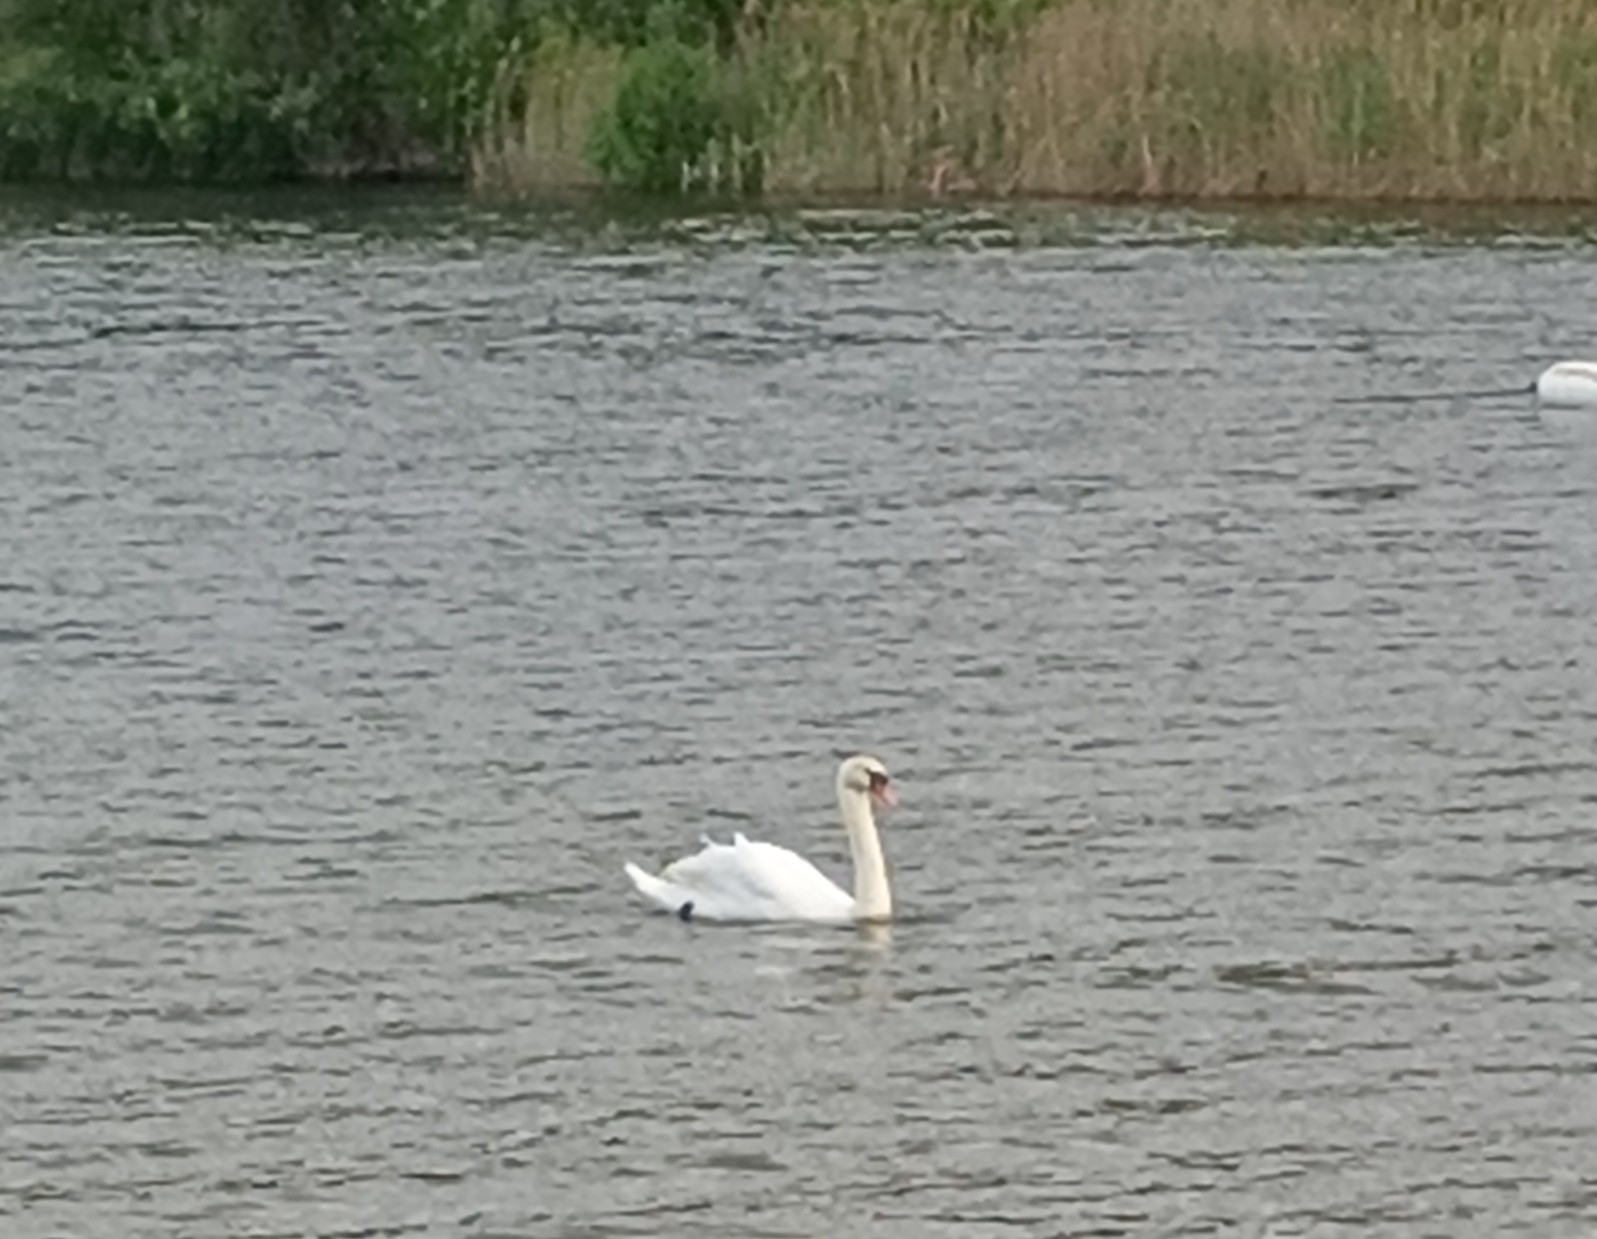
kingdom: Animalia
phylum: Chordata
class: Aves
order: Anseriformes
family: Anatidae
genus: Cygnus
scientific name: Cygnus olor
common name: Mute swan
